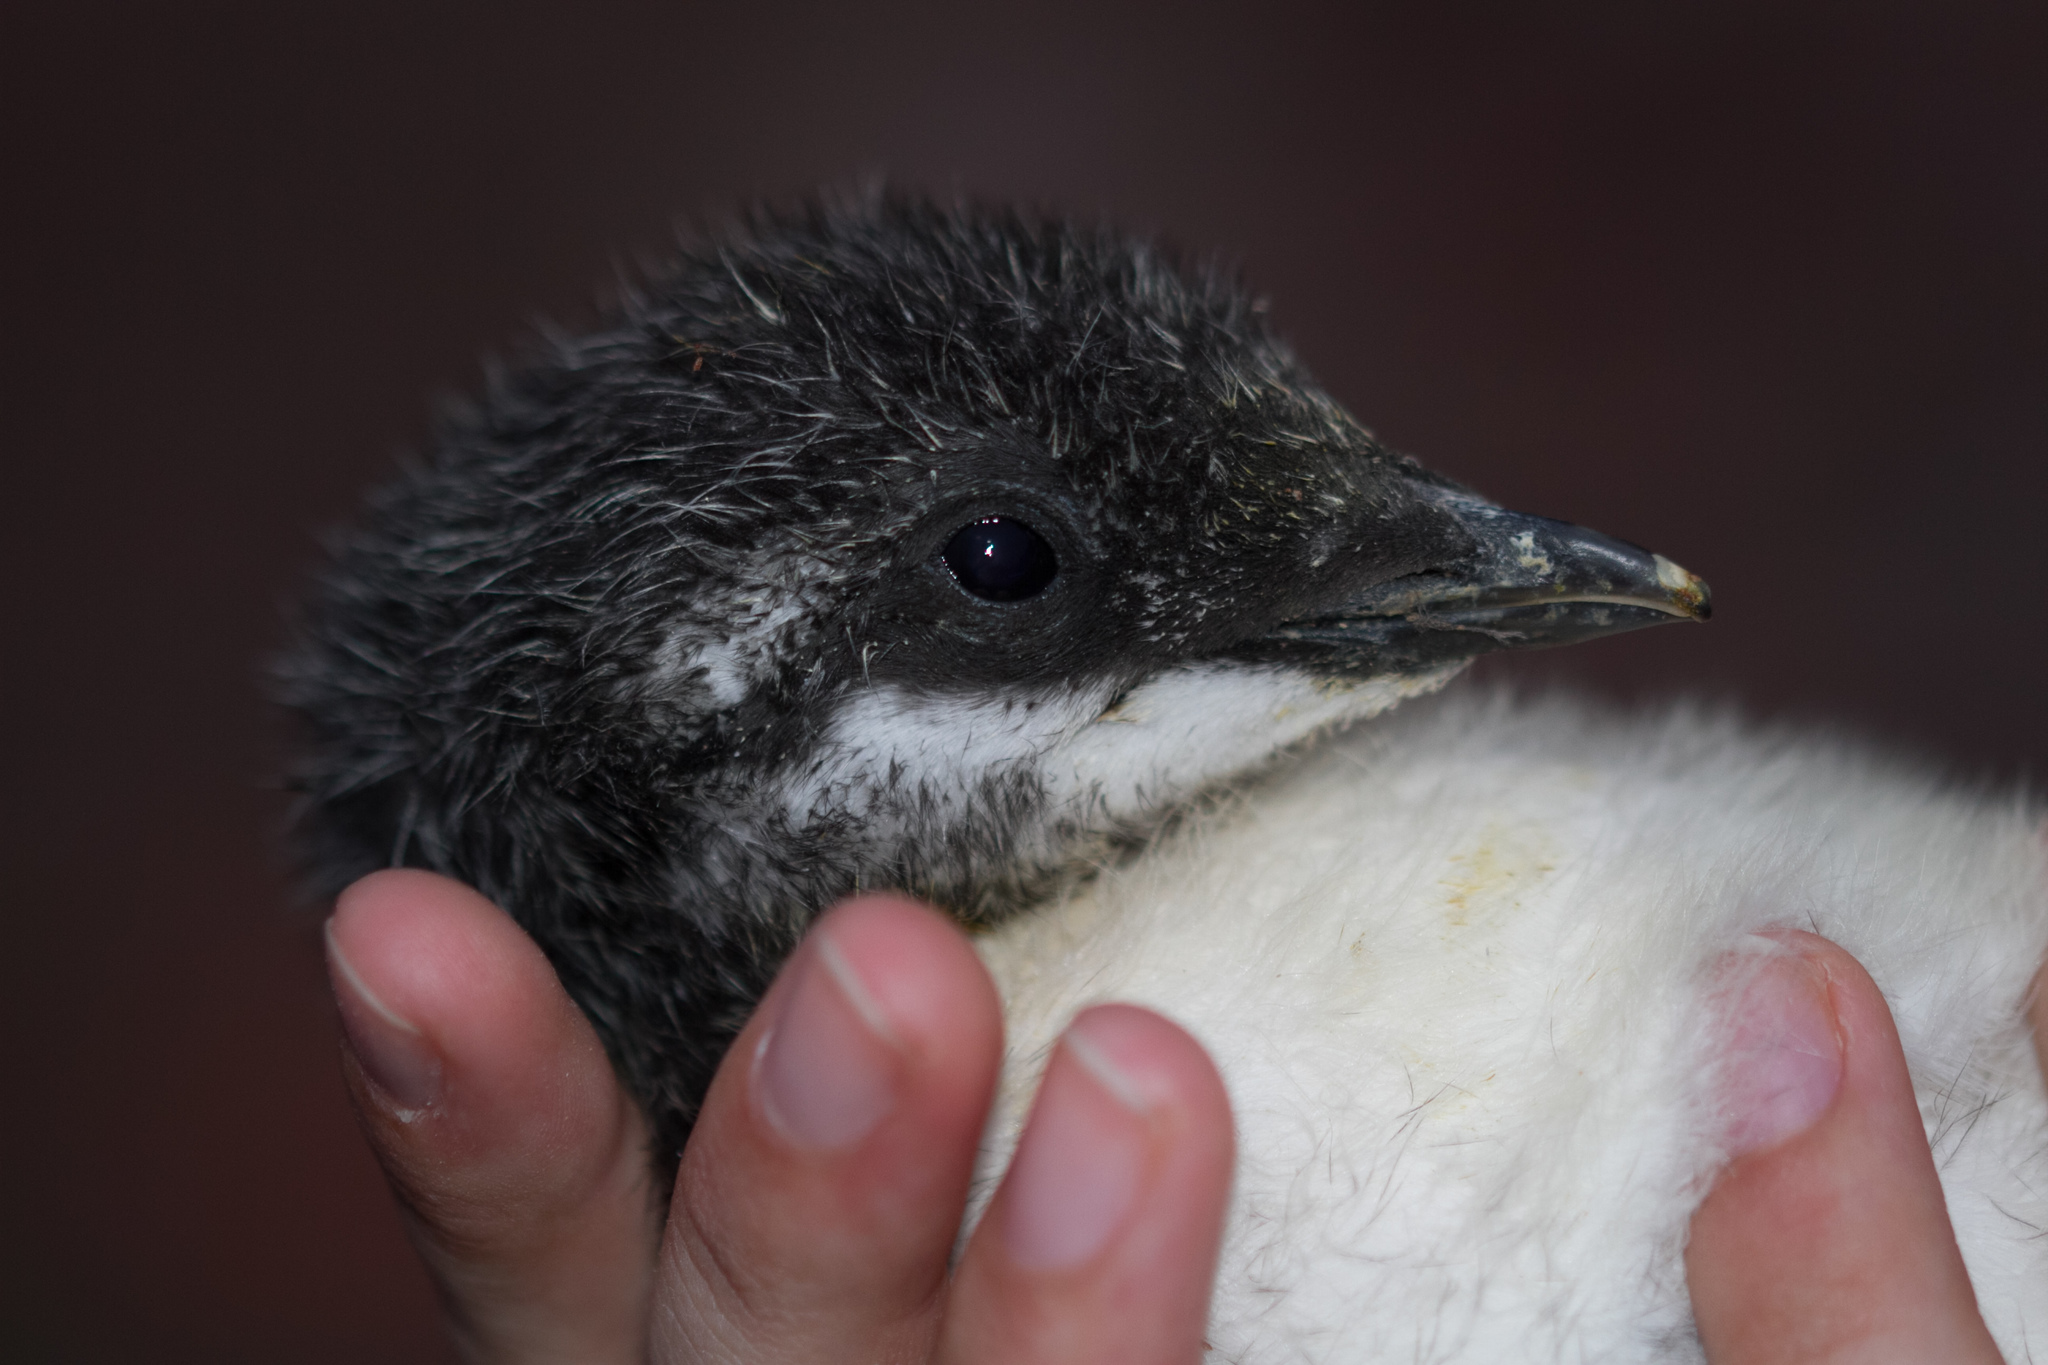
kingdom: Animalia
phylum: Chordata
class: Aves
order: Charadriiformes
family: Alcidae
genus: Uria
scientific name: Uria aalge
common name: Common murre
